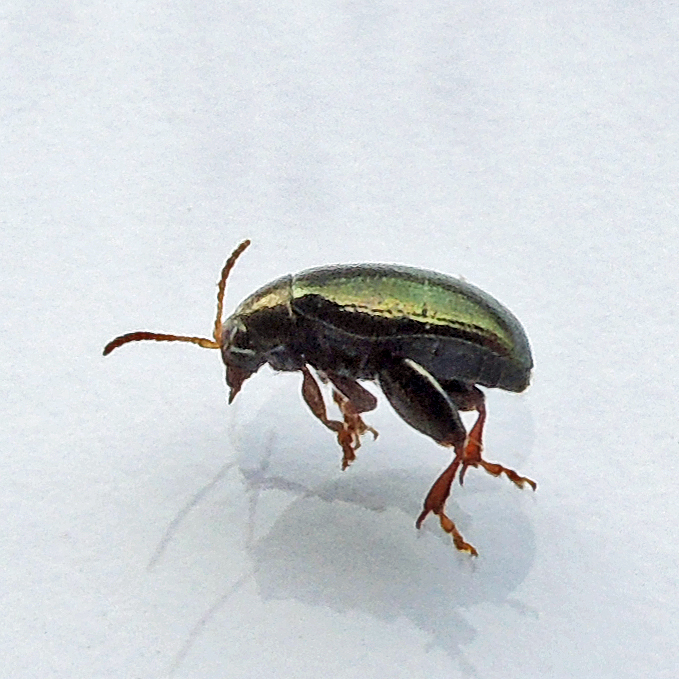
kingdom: Animalia
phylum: Arthropoda
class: Insecta
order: Coleoptera
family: Chrysomelidae
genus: Dibolia
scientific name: Dibolia borealis
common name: Northern plantain flea beetle
